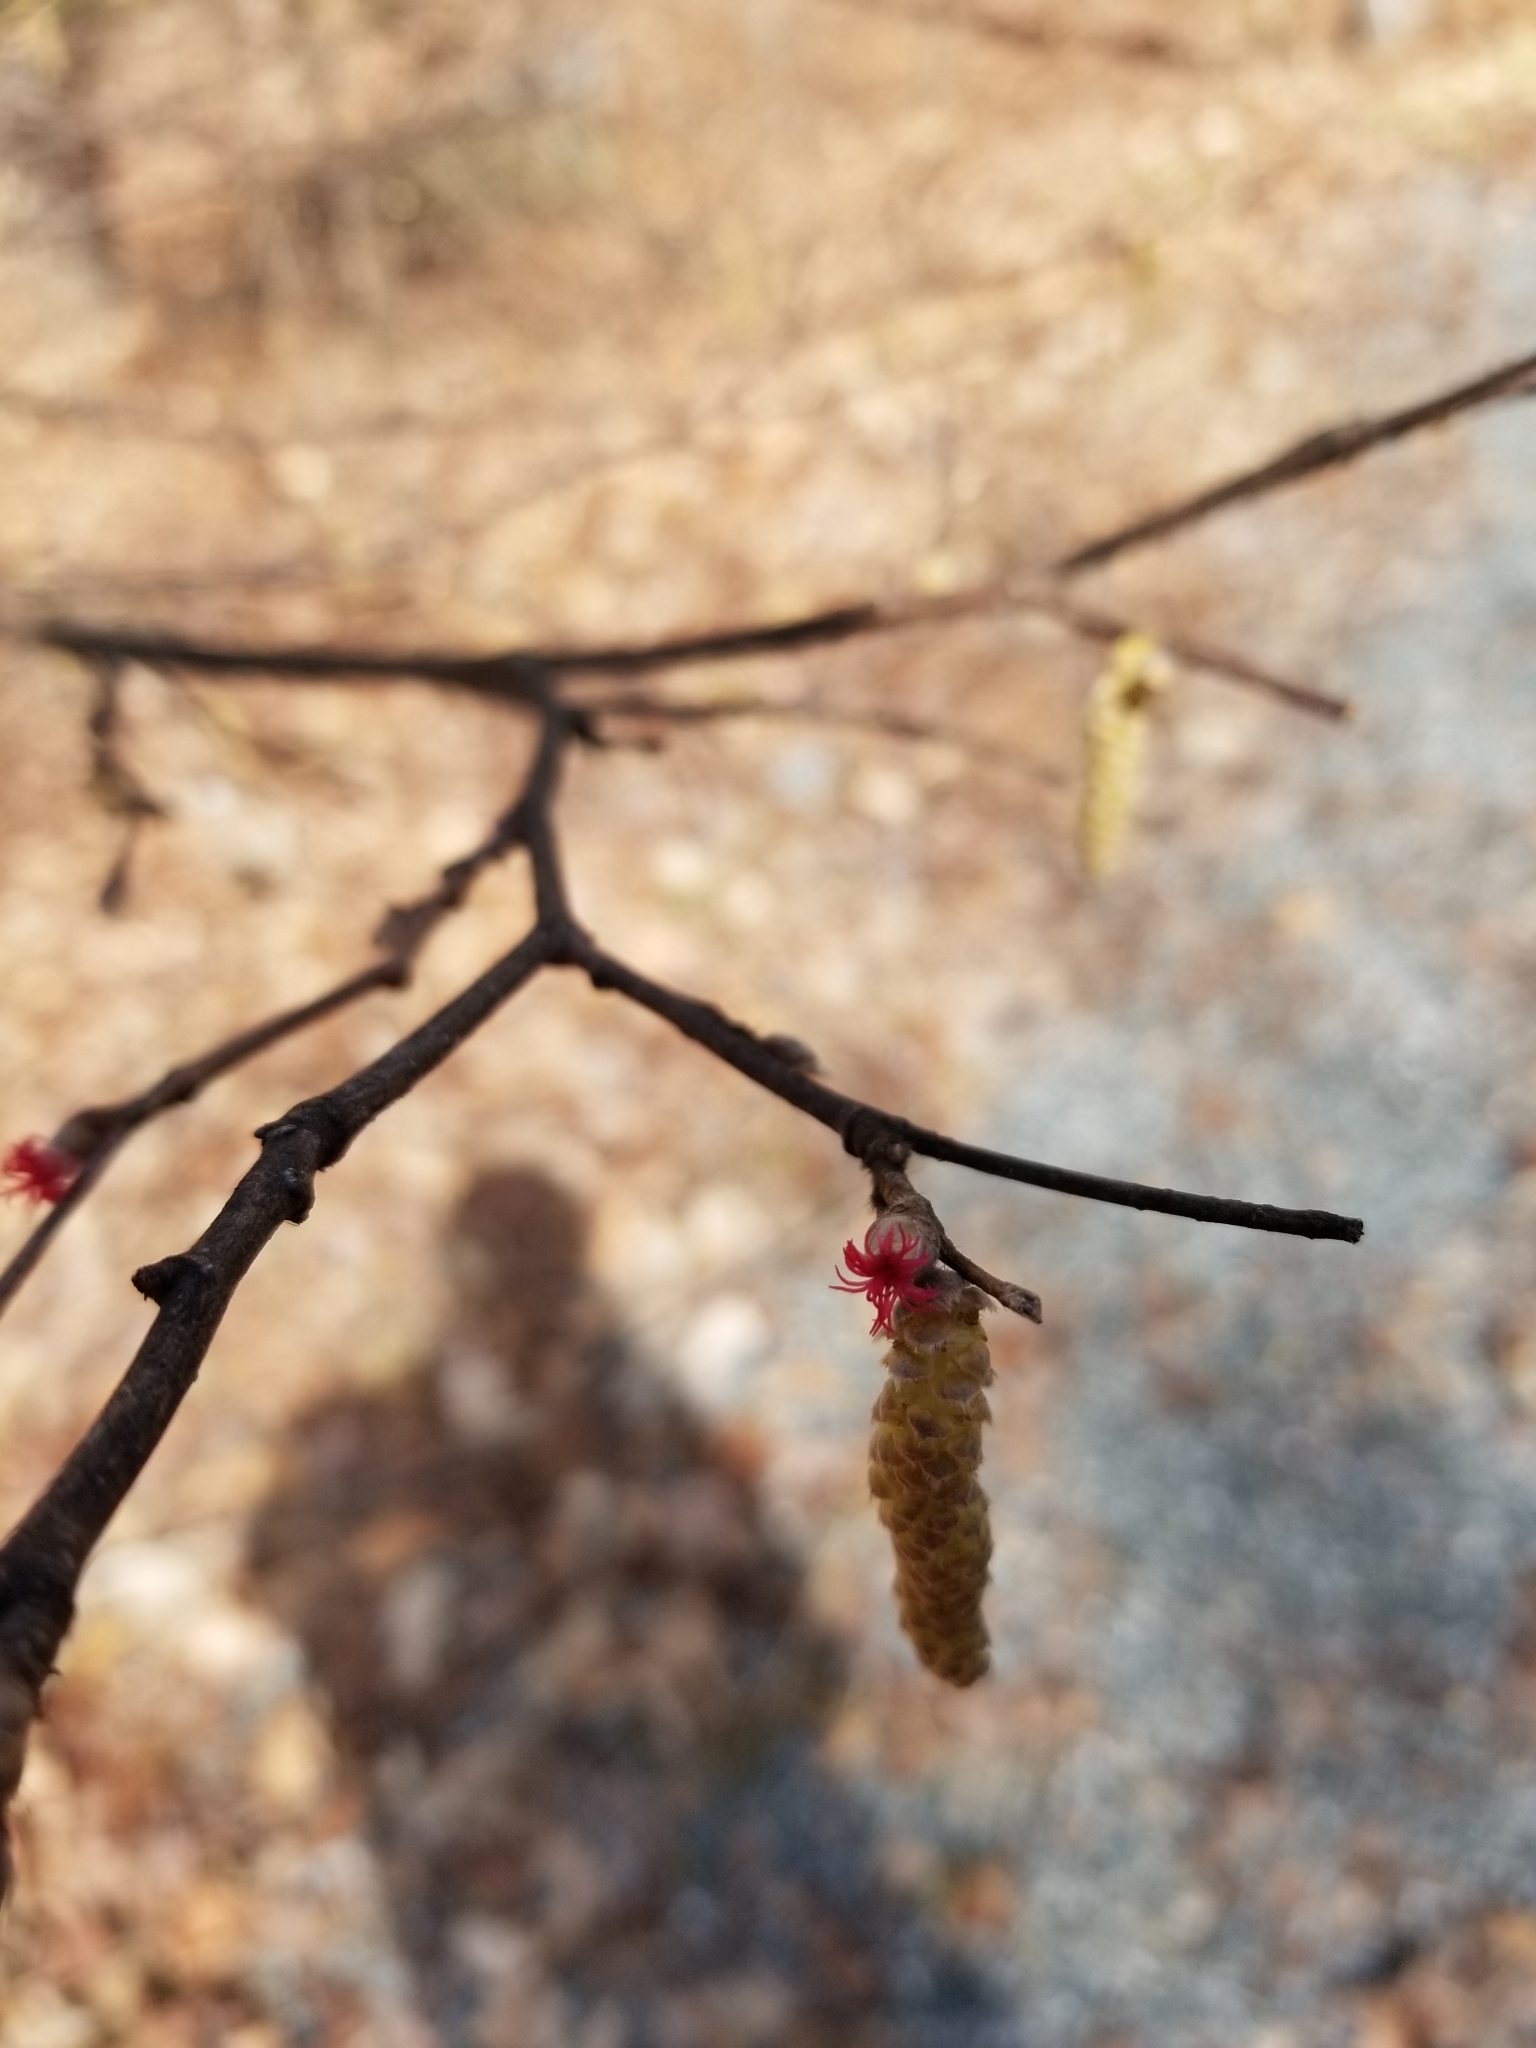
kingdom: Plantae
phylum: Tracheophyta
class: Magnoliopsida
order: Fagales
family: Betulaceae
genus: Corylus
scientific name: Corylus cornuta
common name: Beaked hazel
